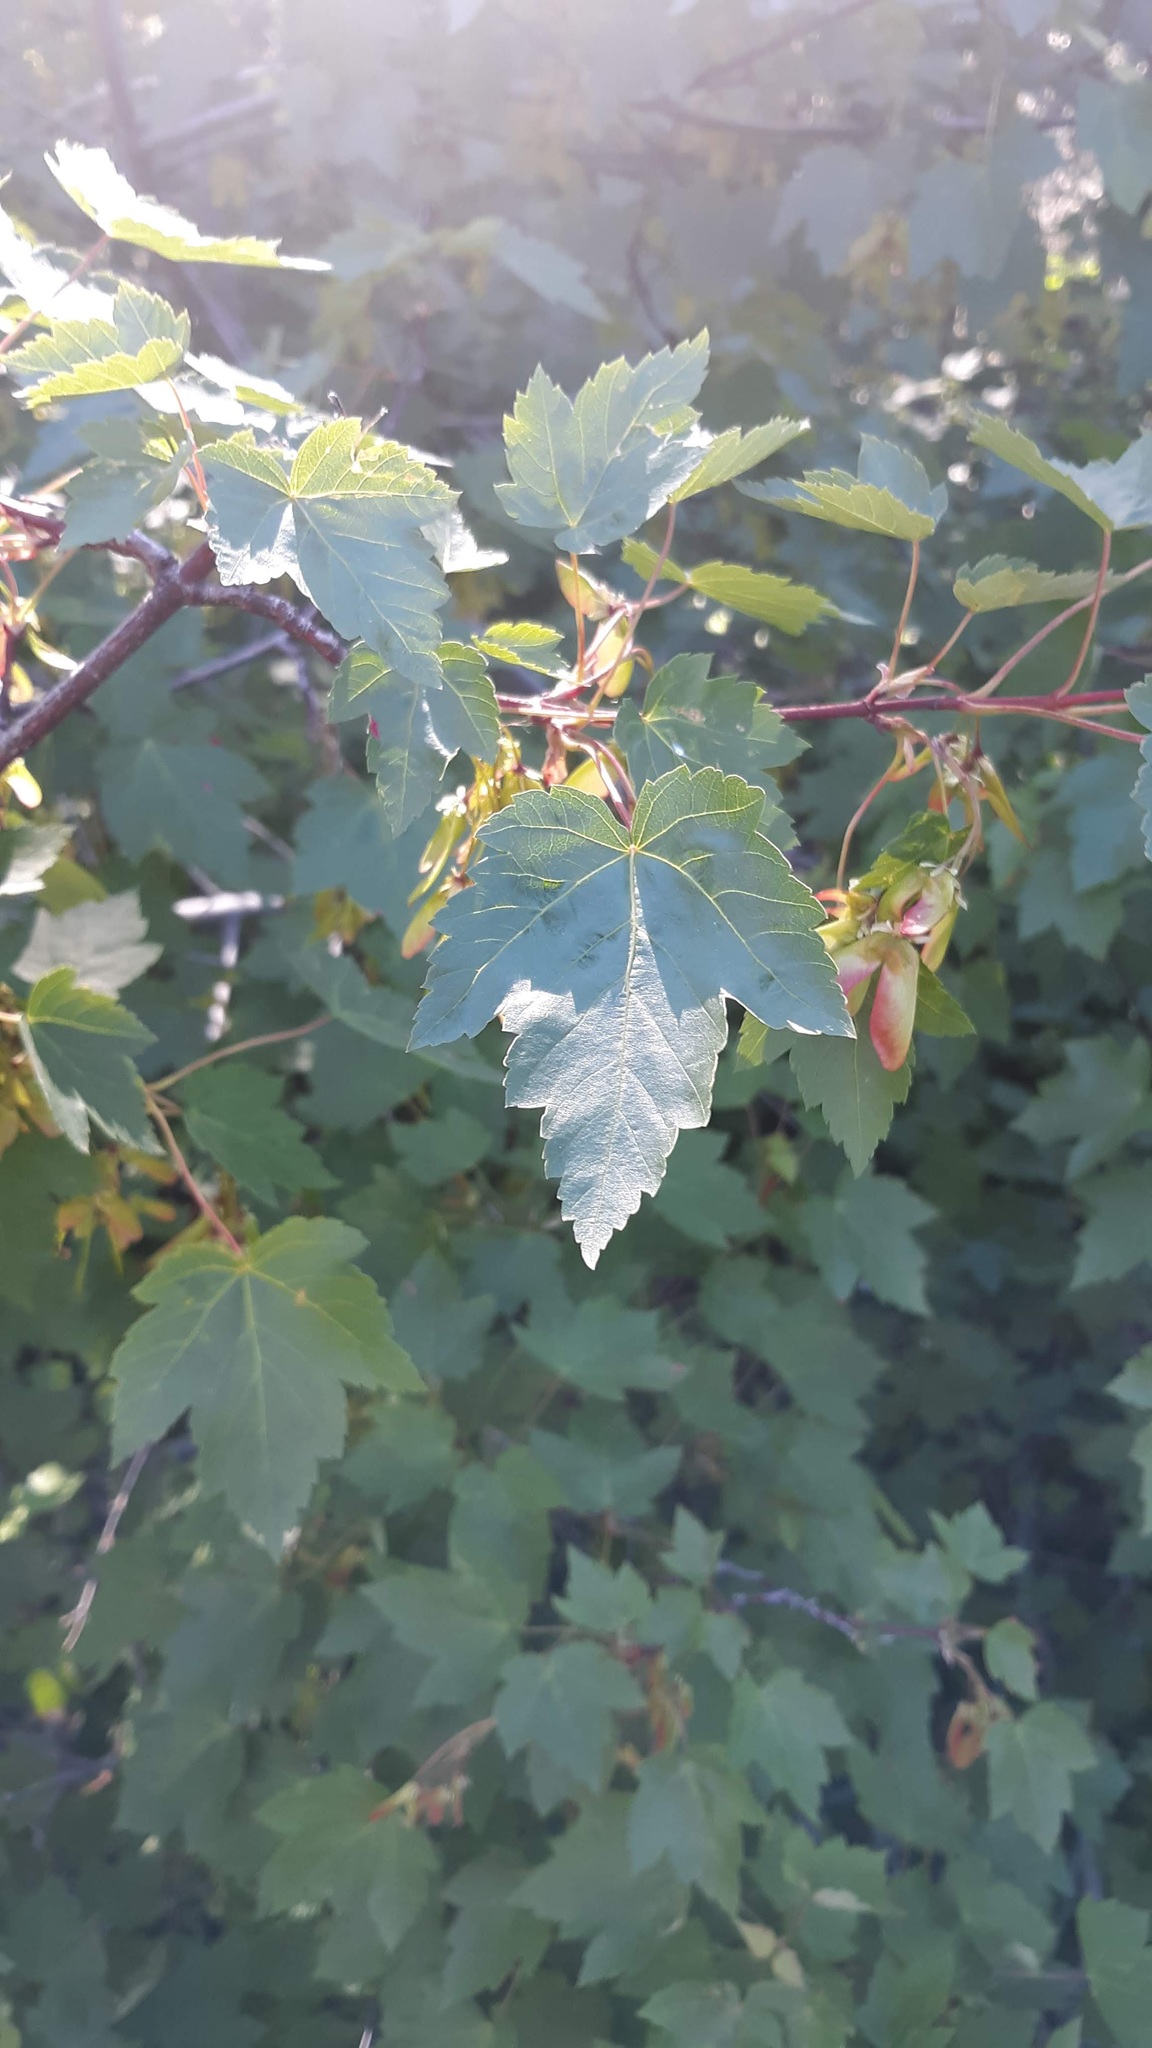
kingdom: Plantae
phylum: Tracheophyta
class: Magnoliopsida
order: Sapindales
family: Sapindaceae
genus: Acer
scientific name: Acer glabrum
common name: Rocky mountain maple
